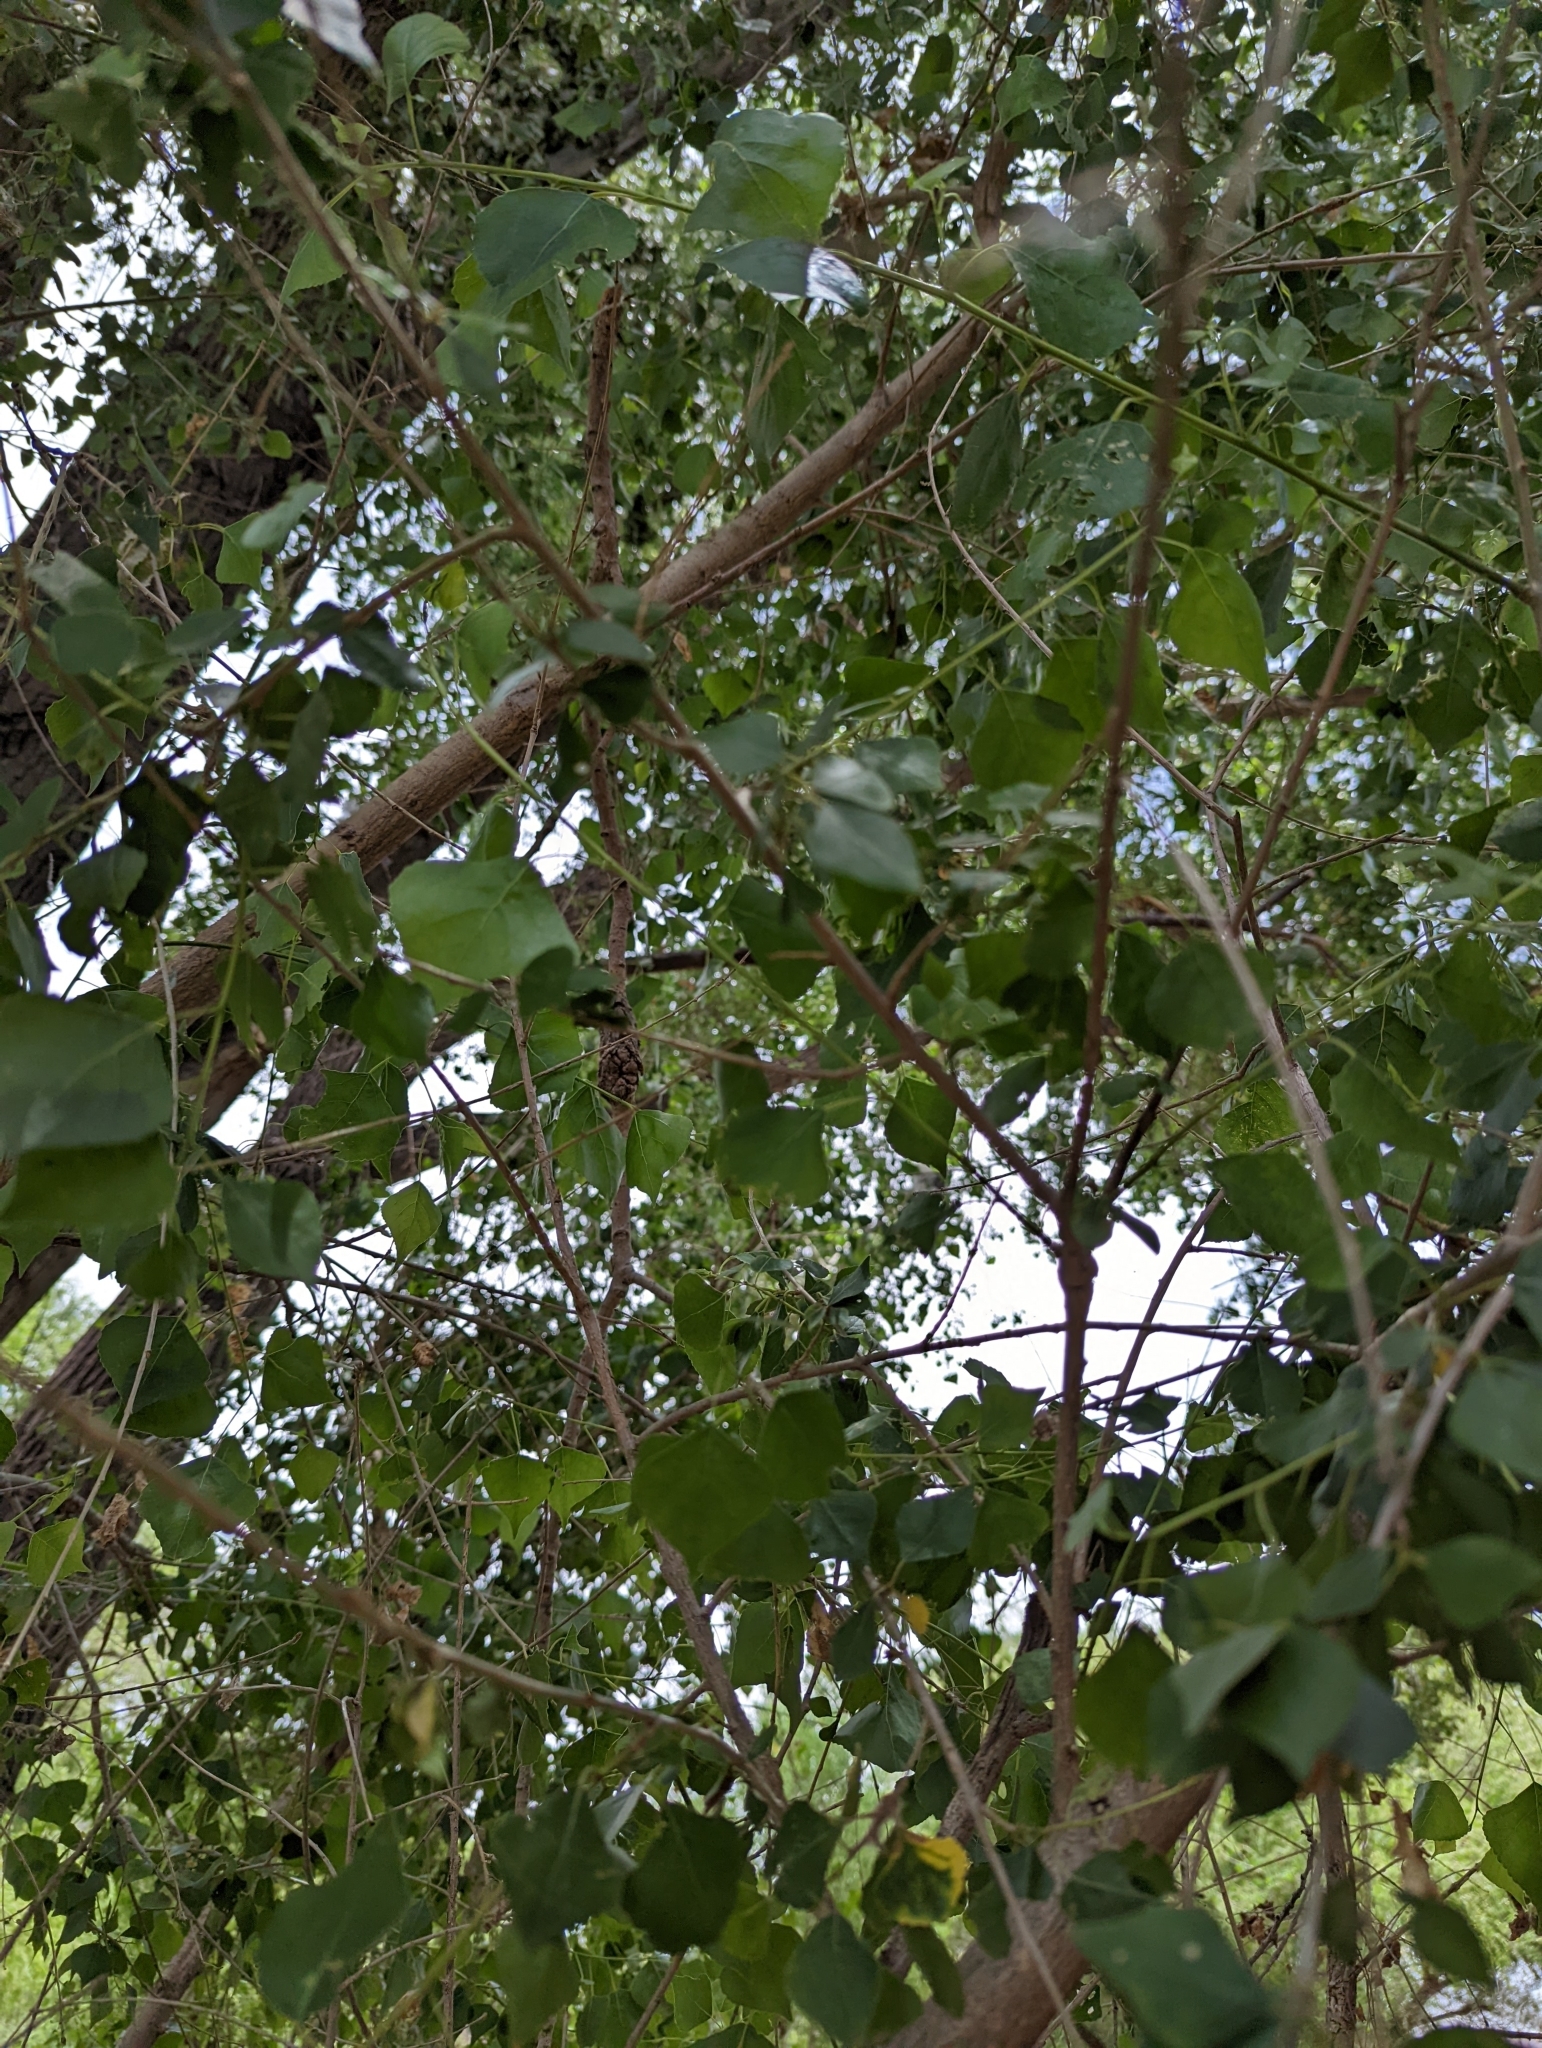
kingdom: Plantae
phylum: Tracheophyta
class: Magnoliopsida
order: Malpighiales
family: Salicaceae
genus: Populus
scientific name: Populus fremontii
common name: Fremont's cottonwood
